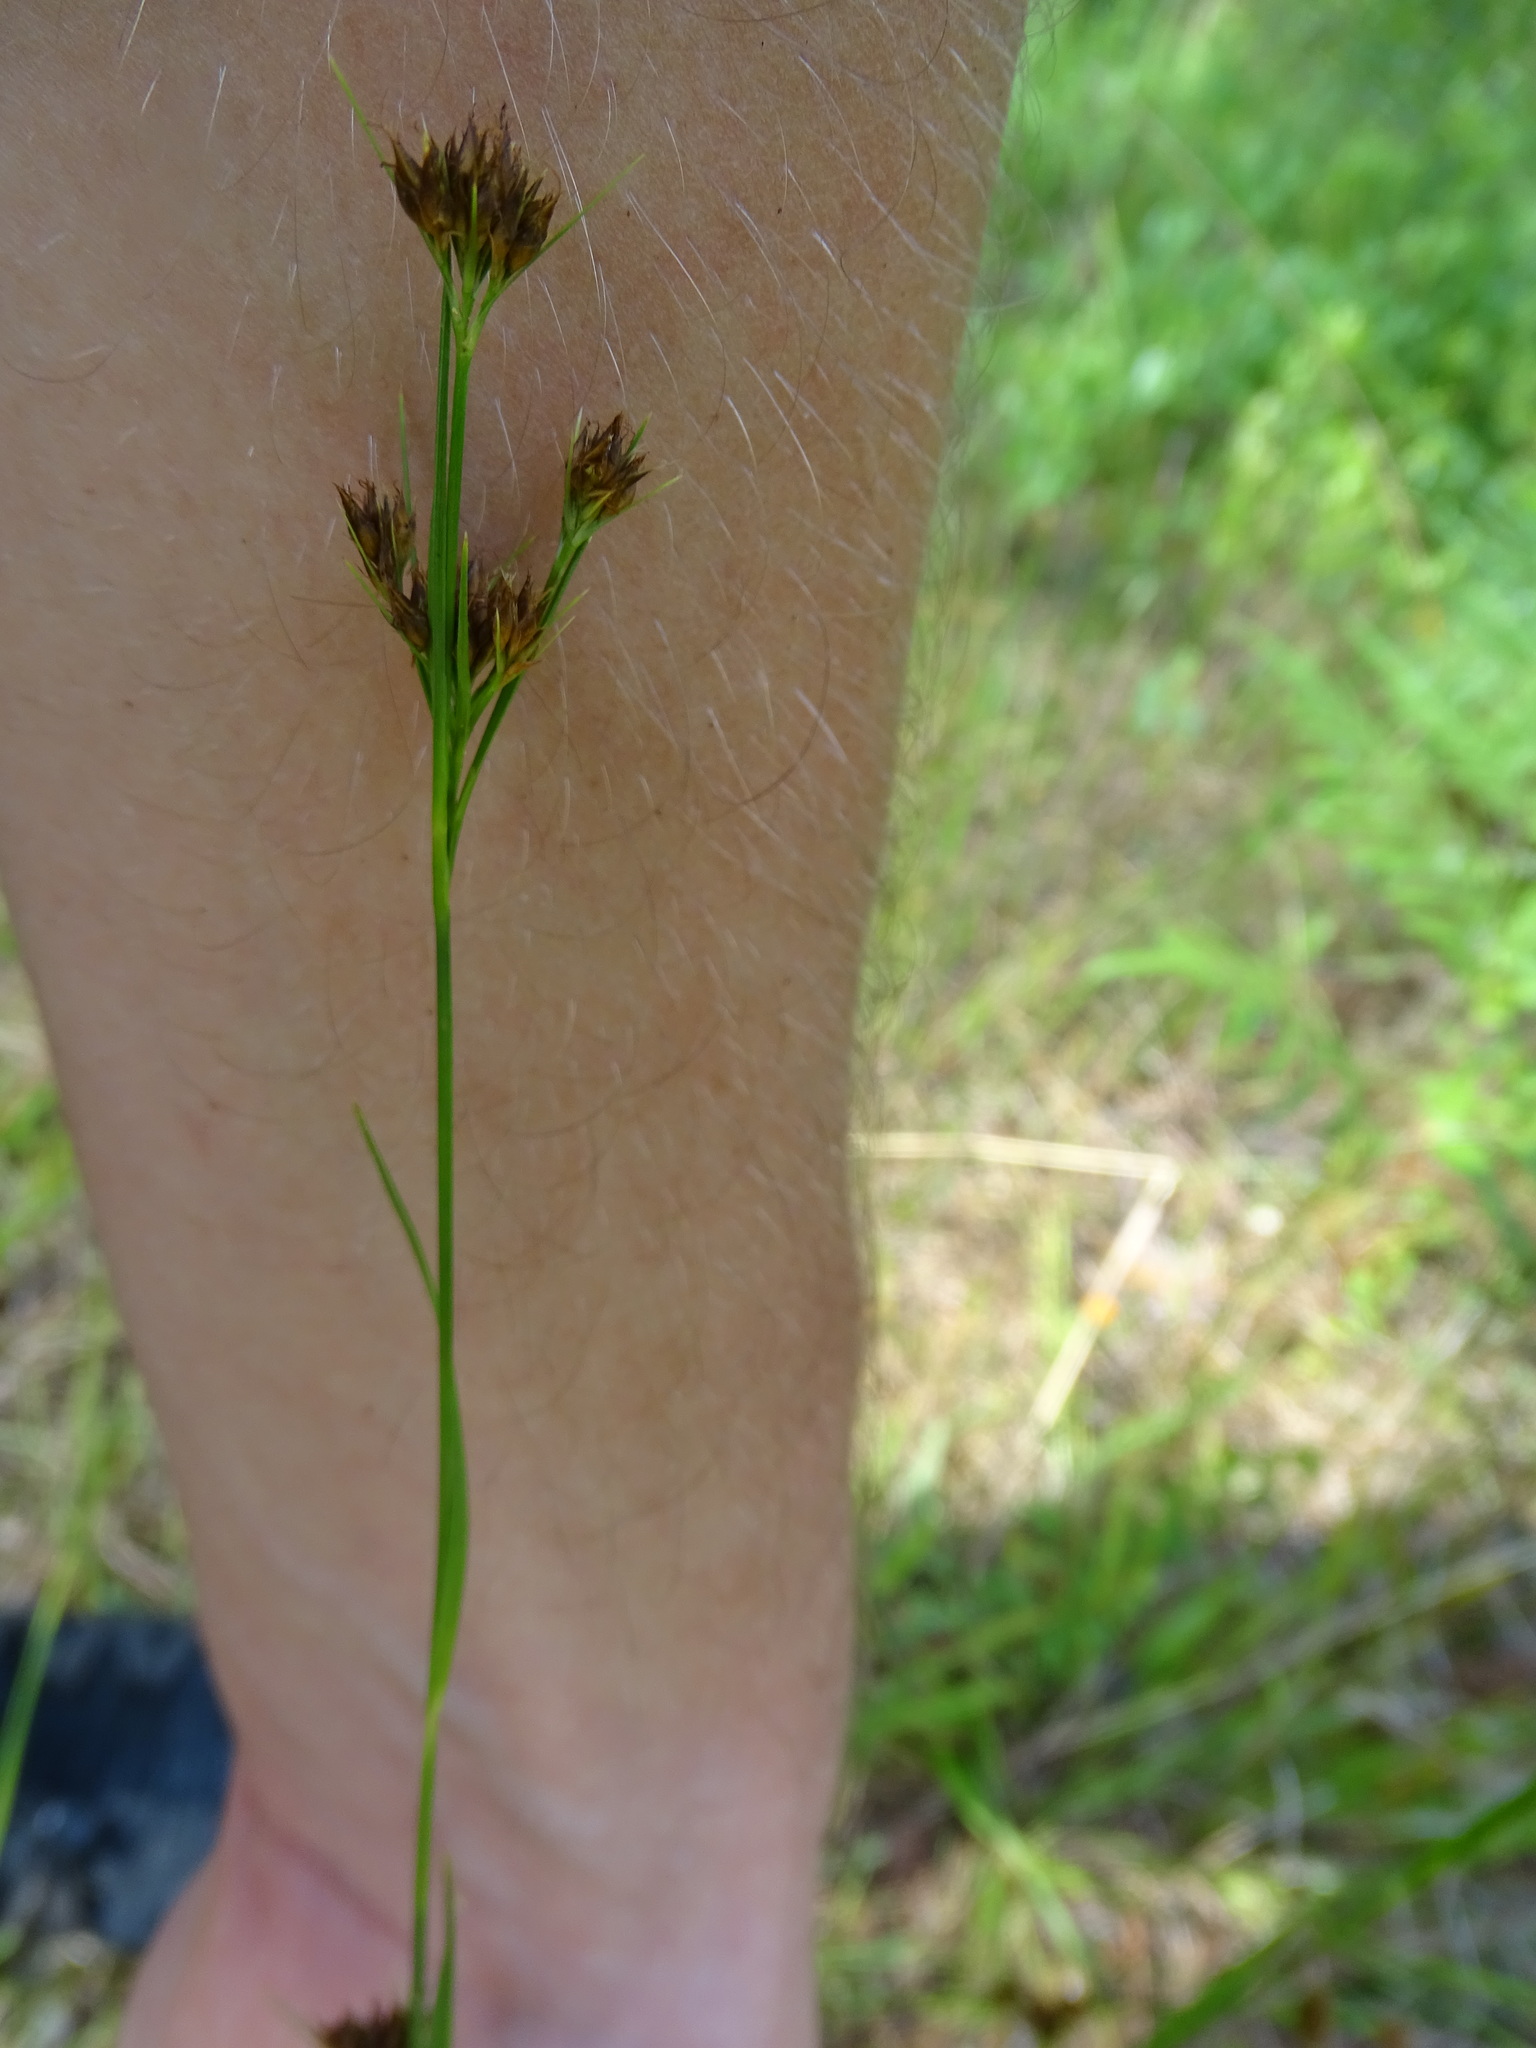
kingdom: Plantae
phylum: Tracheophyta
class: Liliopsida
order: Poales
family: Cyperaceae
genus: Rhynchospora
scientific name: Rhynchospora fascicularis
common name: Fascicled beak sedge
